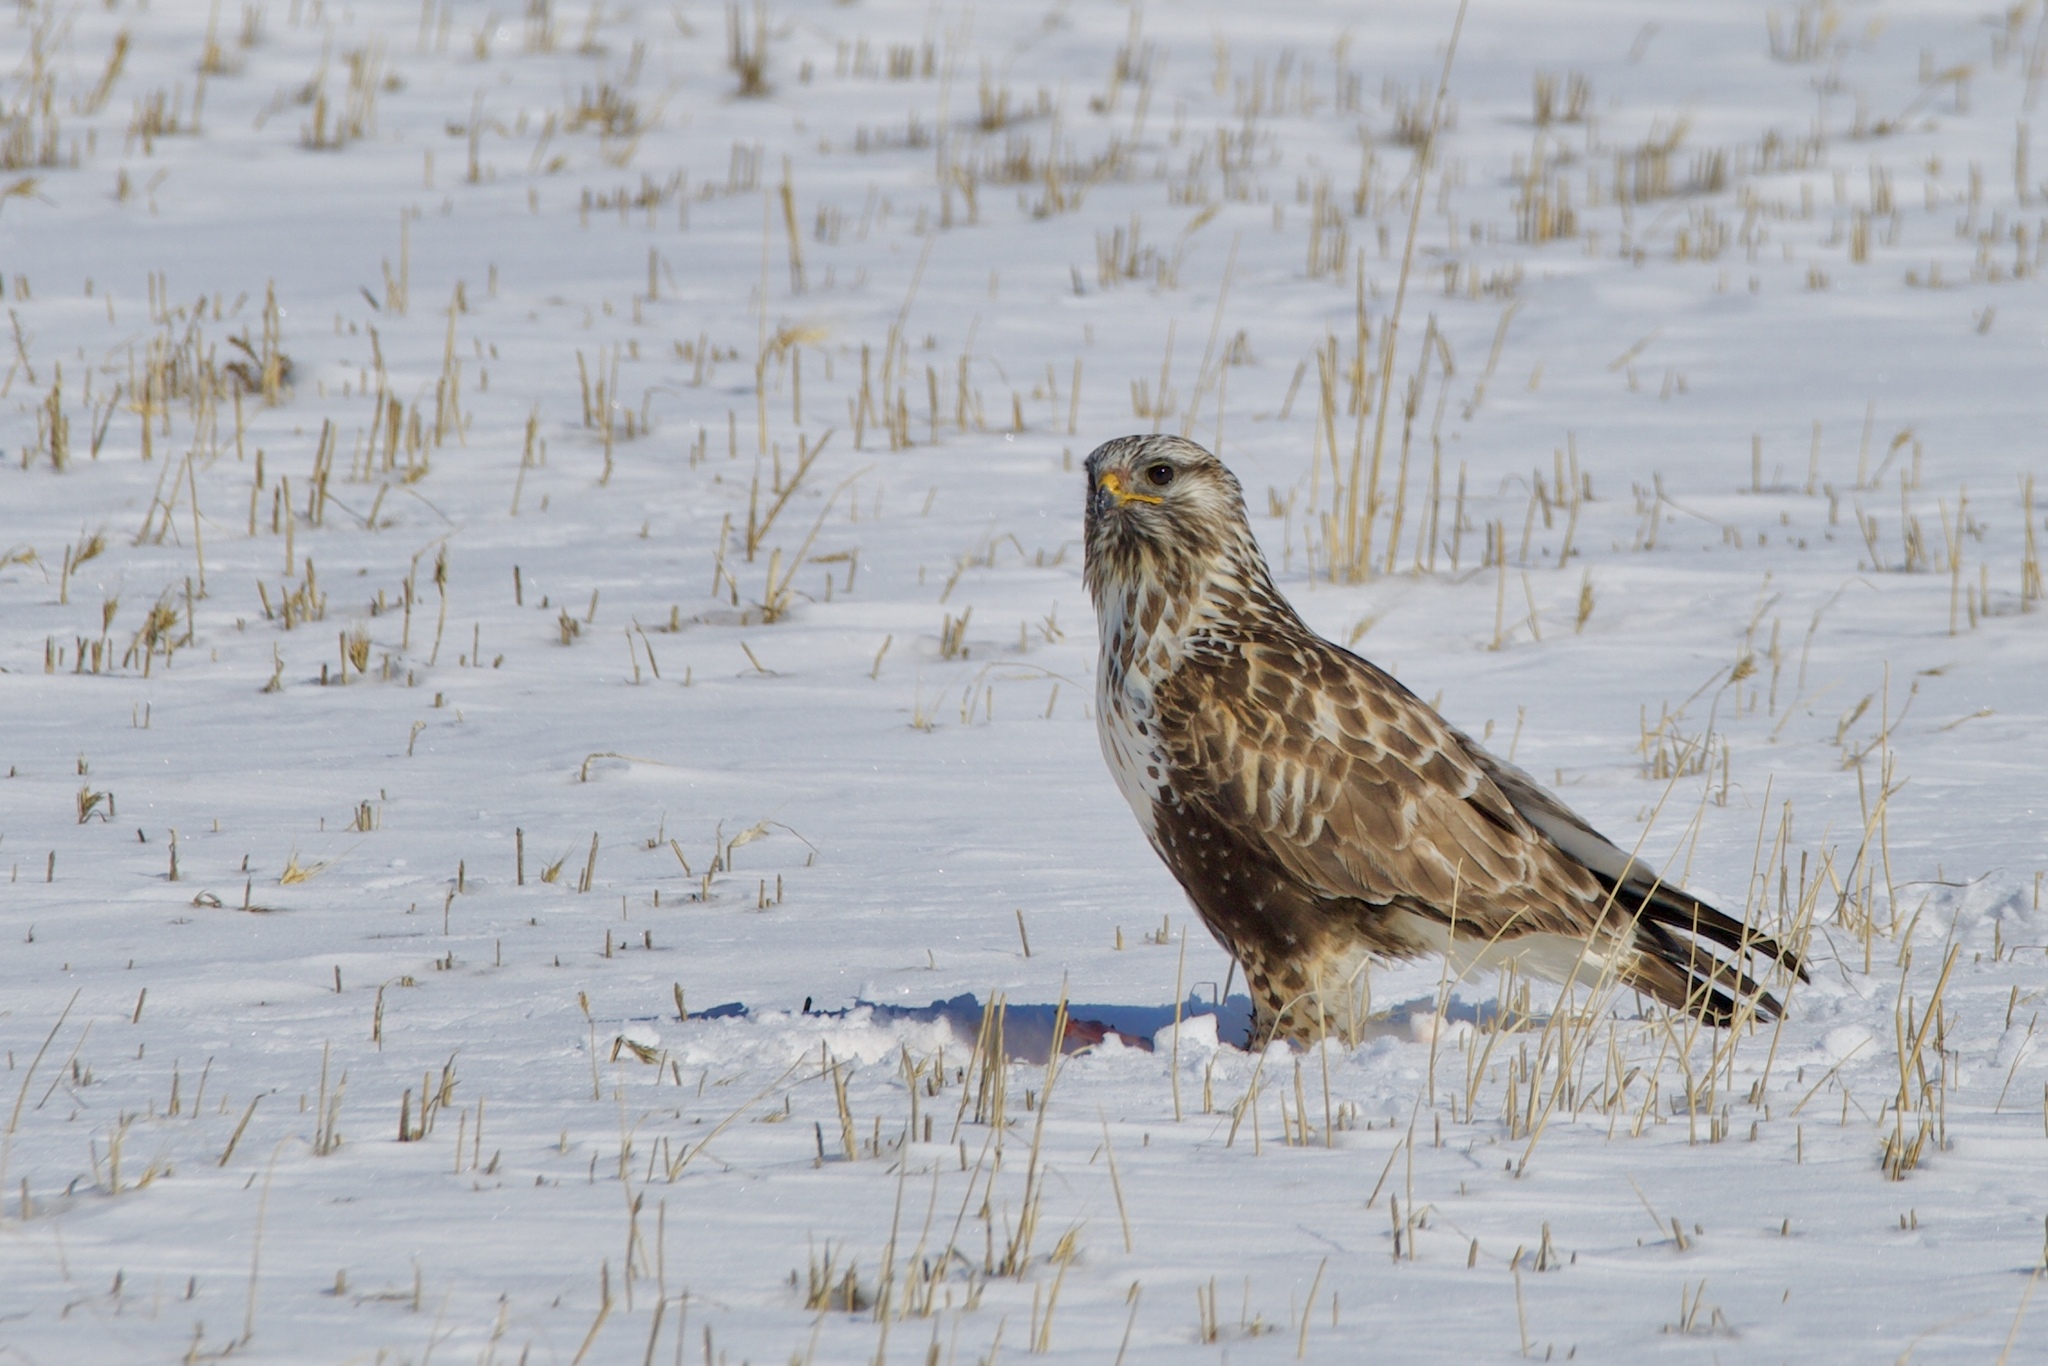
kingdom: Animalia
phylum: Chordata
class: Aves
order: Accipitriformes
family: Accipitridae
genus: Buteo
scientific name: Buteo lagopus
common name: Rough-legged buzzard
